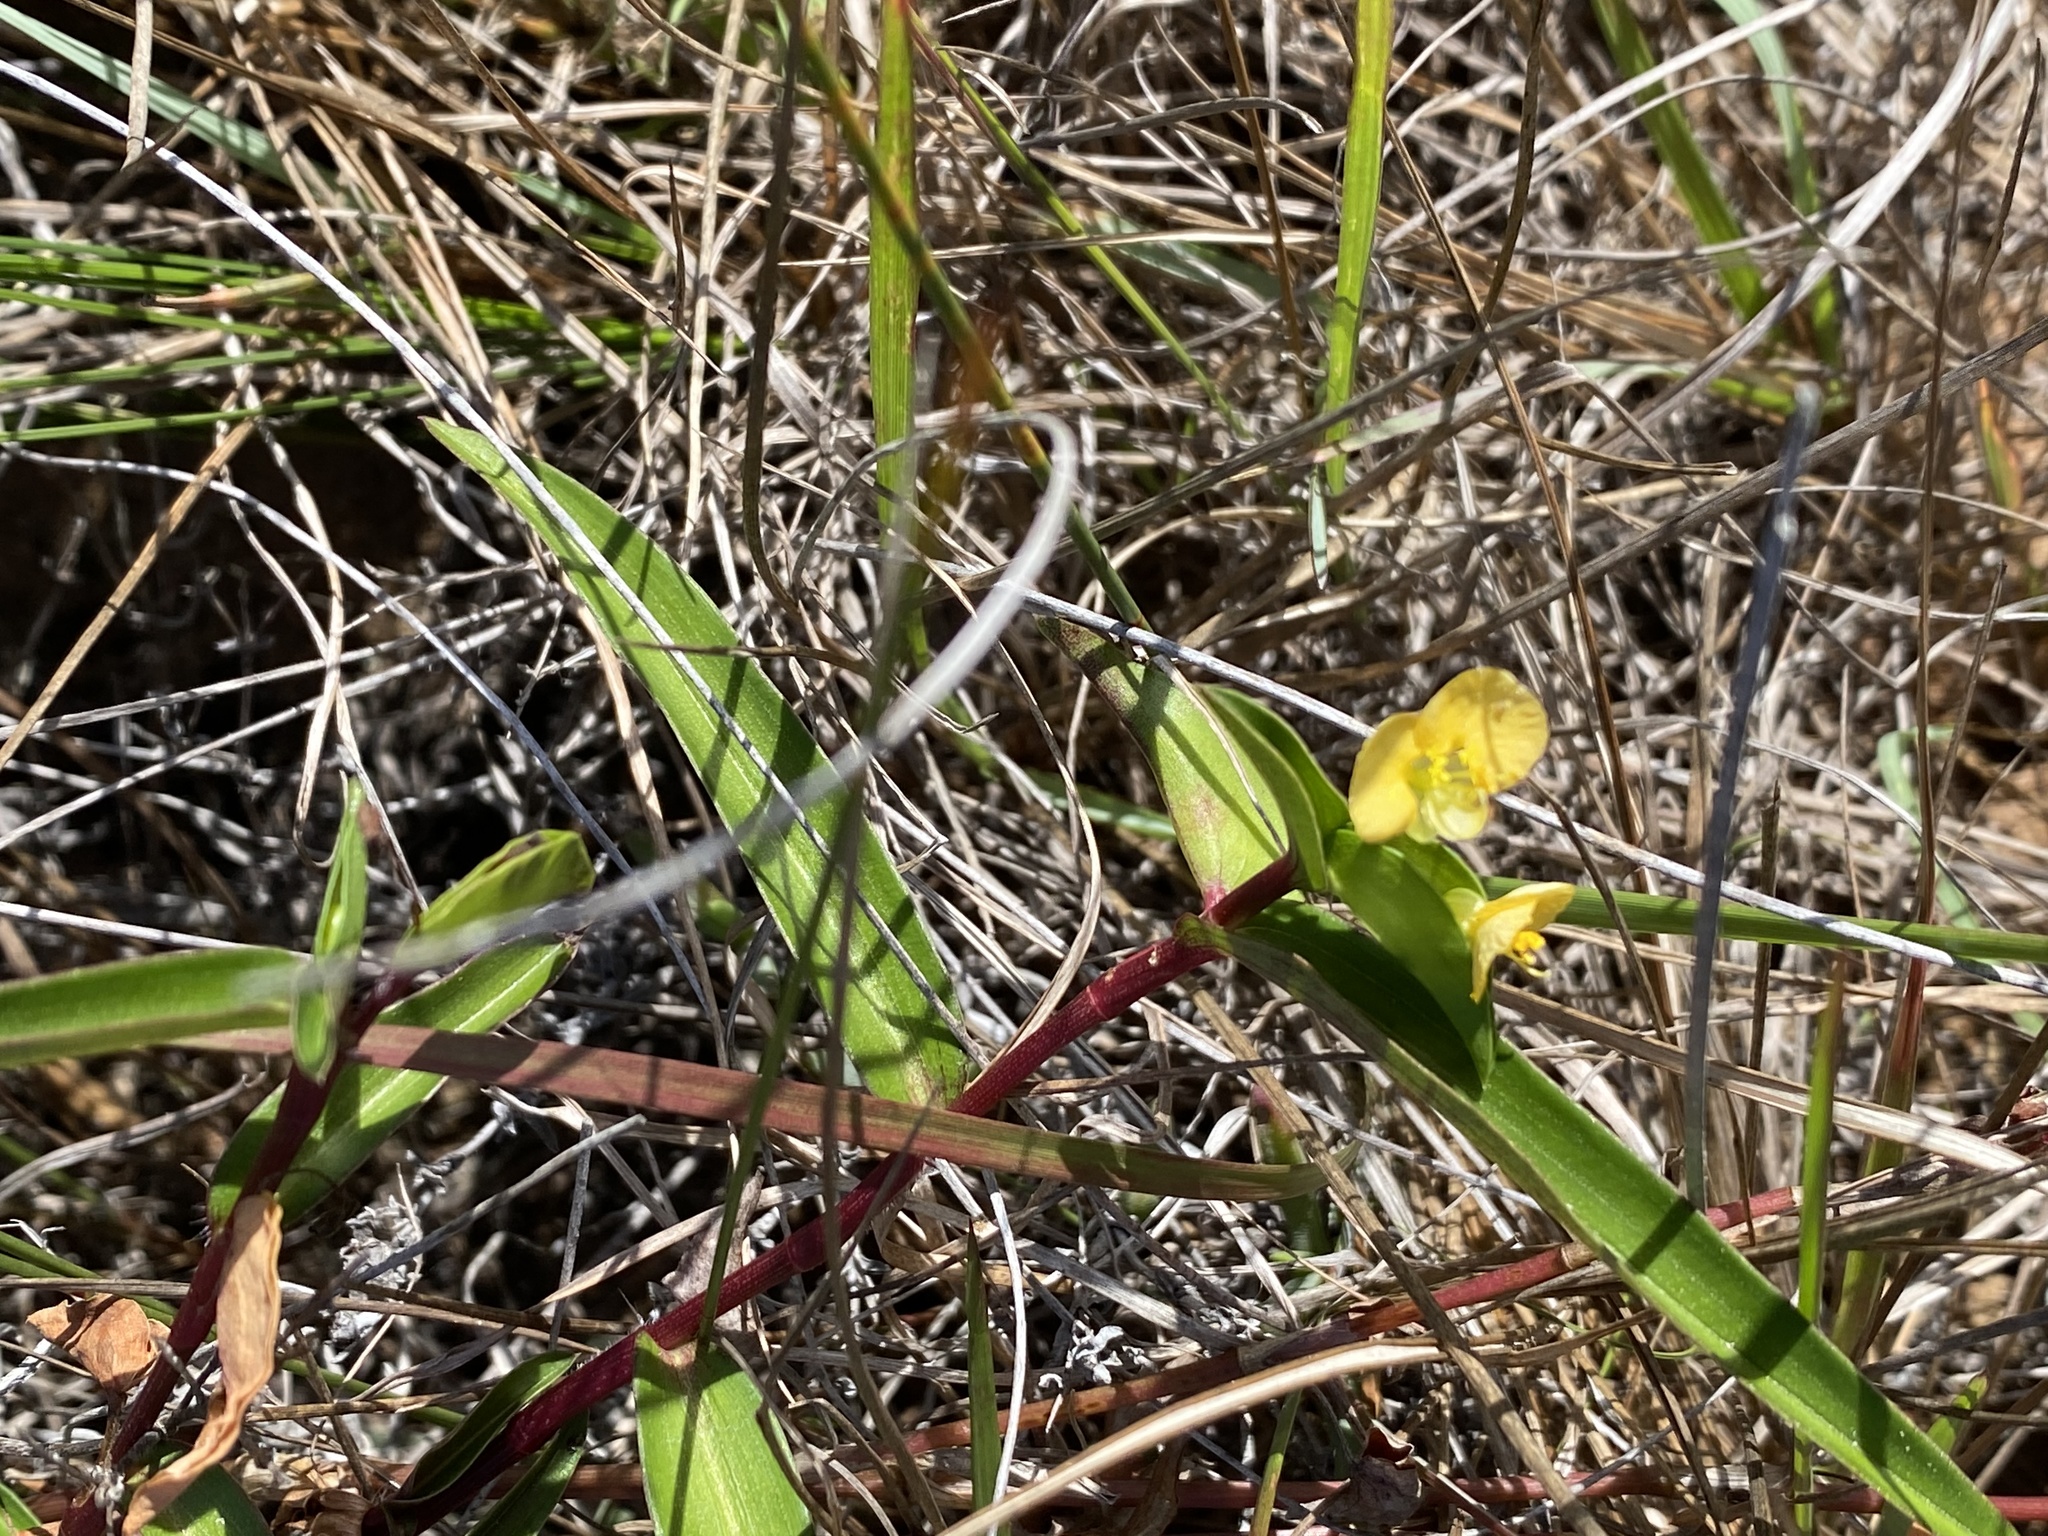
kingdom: Plantae
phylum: Tracheophyta
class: Liliopsida
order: Commelinales
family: Commelinaceae
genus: Commelina
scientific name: Commelina africana
